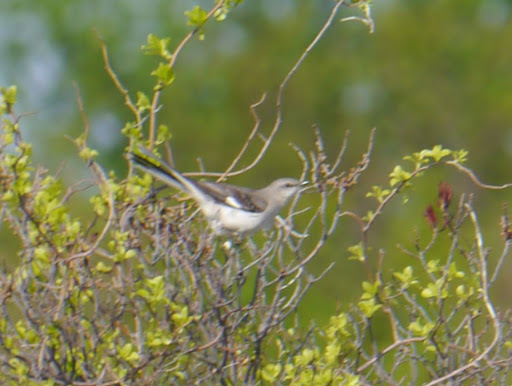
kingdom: Animalia
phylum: Chordata
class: Aves
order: Passeriformes
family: Mimidae
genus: Mimus
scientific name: Mimus polyglottos
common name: Northern mockingbird
